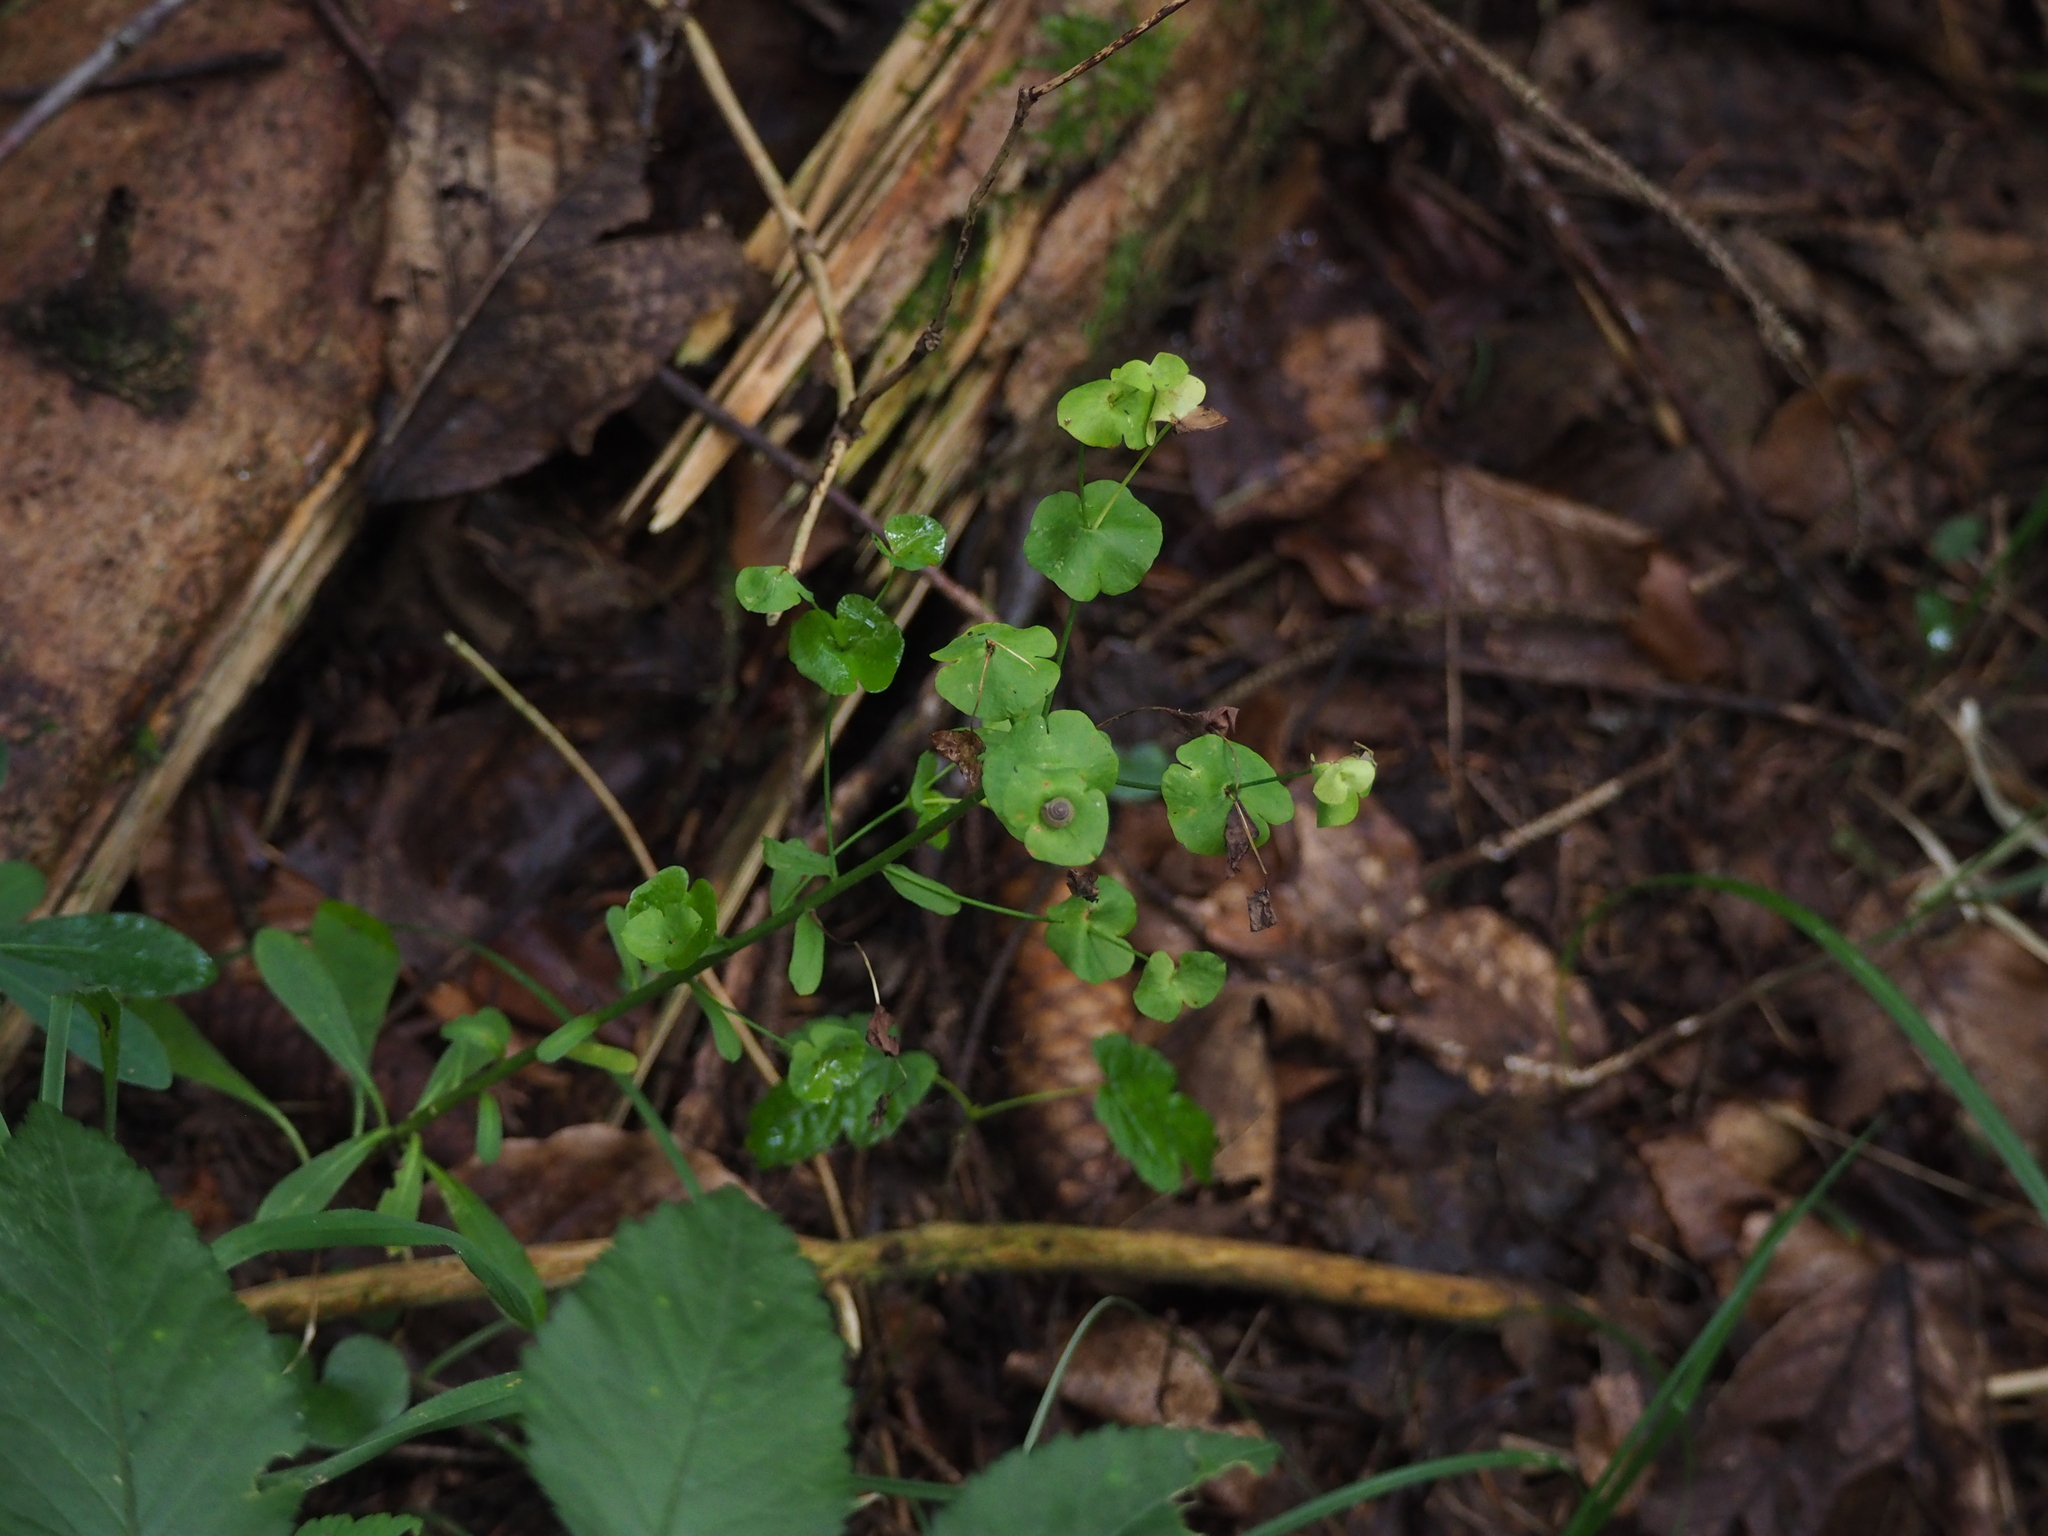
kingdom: Plantae
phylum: Tracheophyta
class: Magnoliopsida
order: Malpighiales
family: Euphorbiaceae
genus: Euphorbia
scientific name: Euphorbia amygdaloides
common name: Wood spurge
